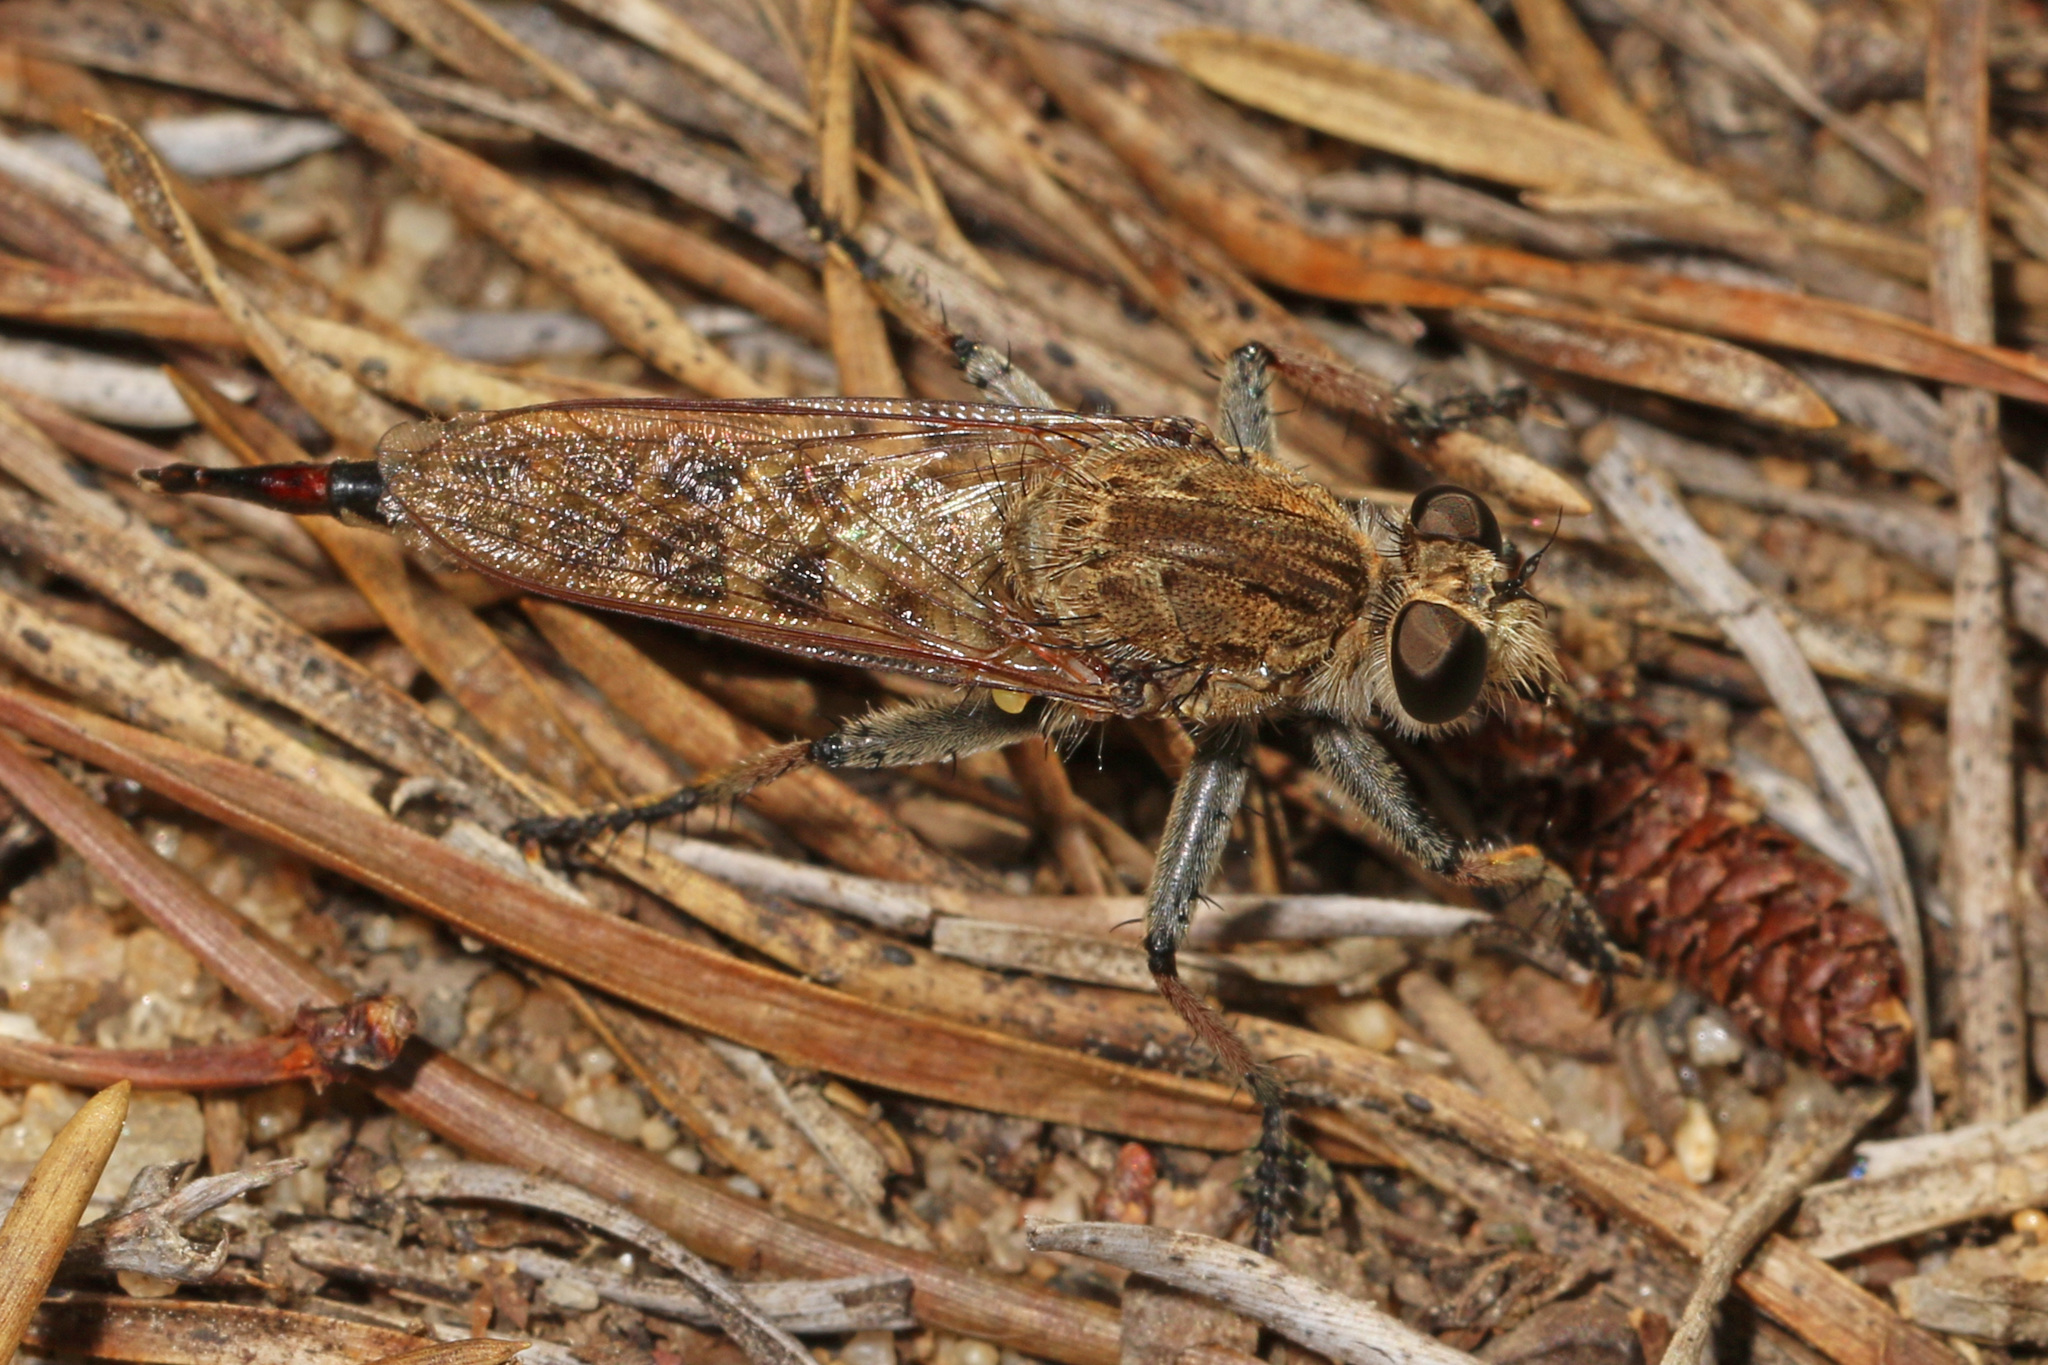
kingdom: Animalia
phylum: Arthropoda
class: Insecta
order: Diptera
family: Asilidae
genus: Efferia
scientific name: Efferia albibarbis
